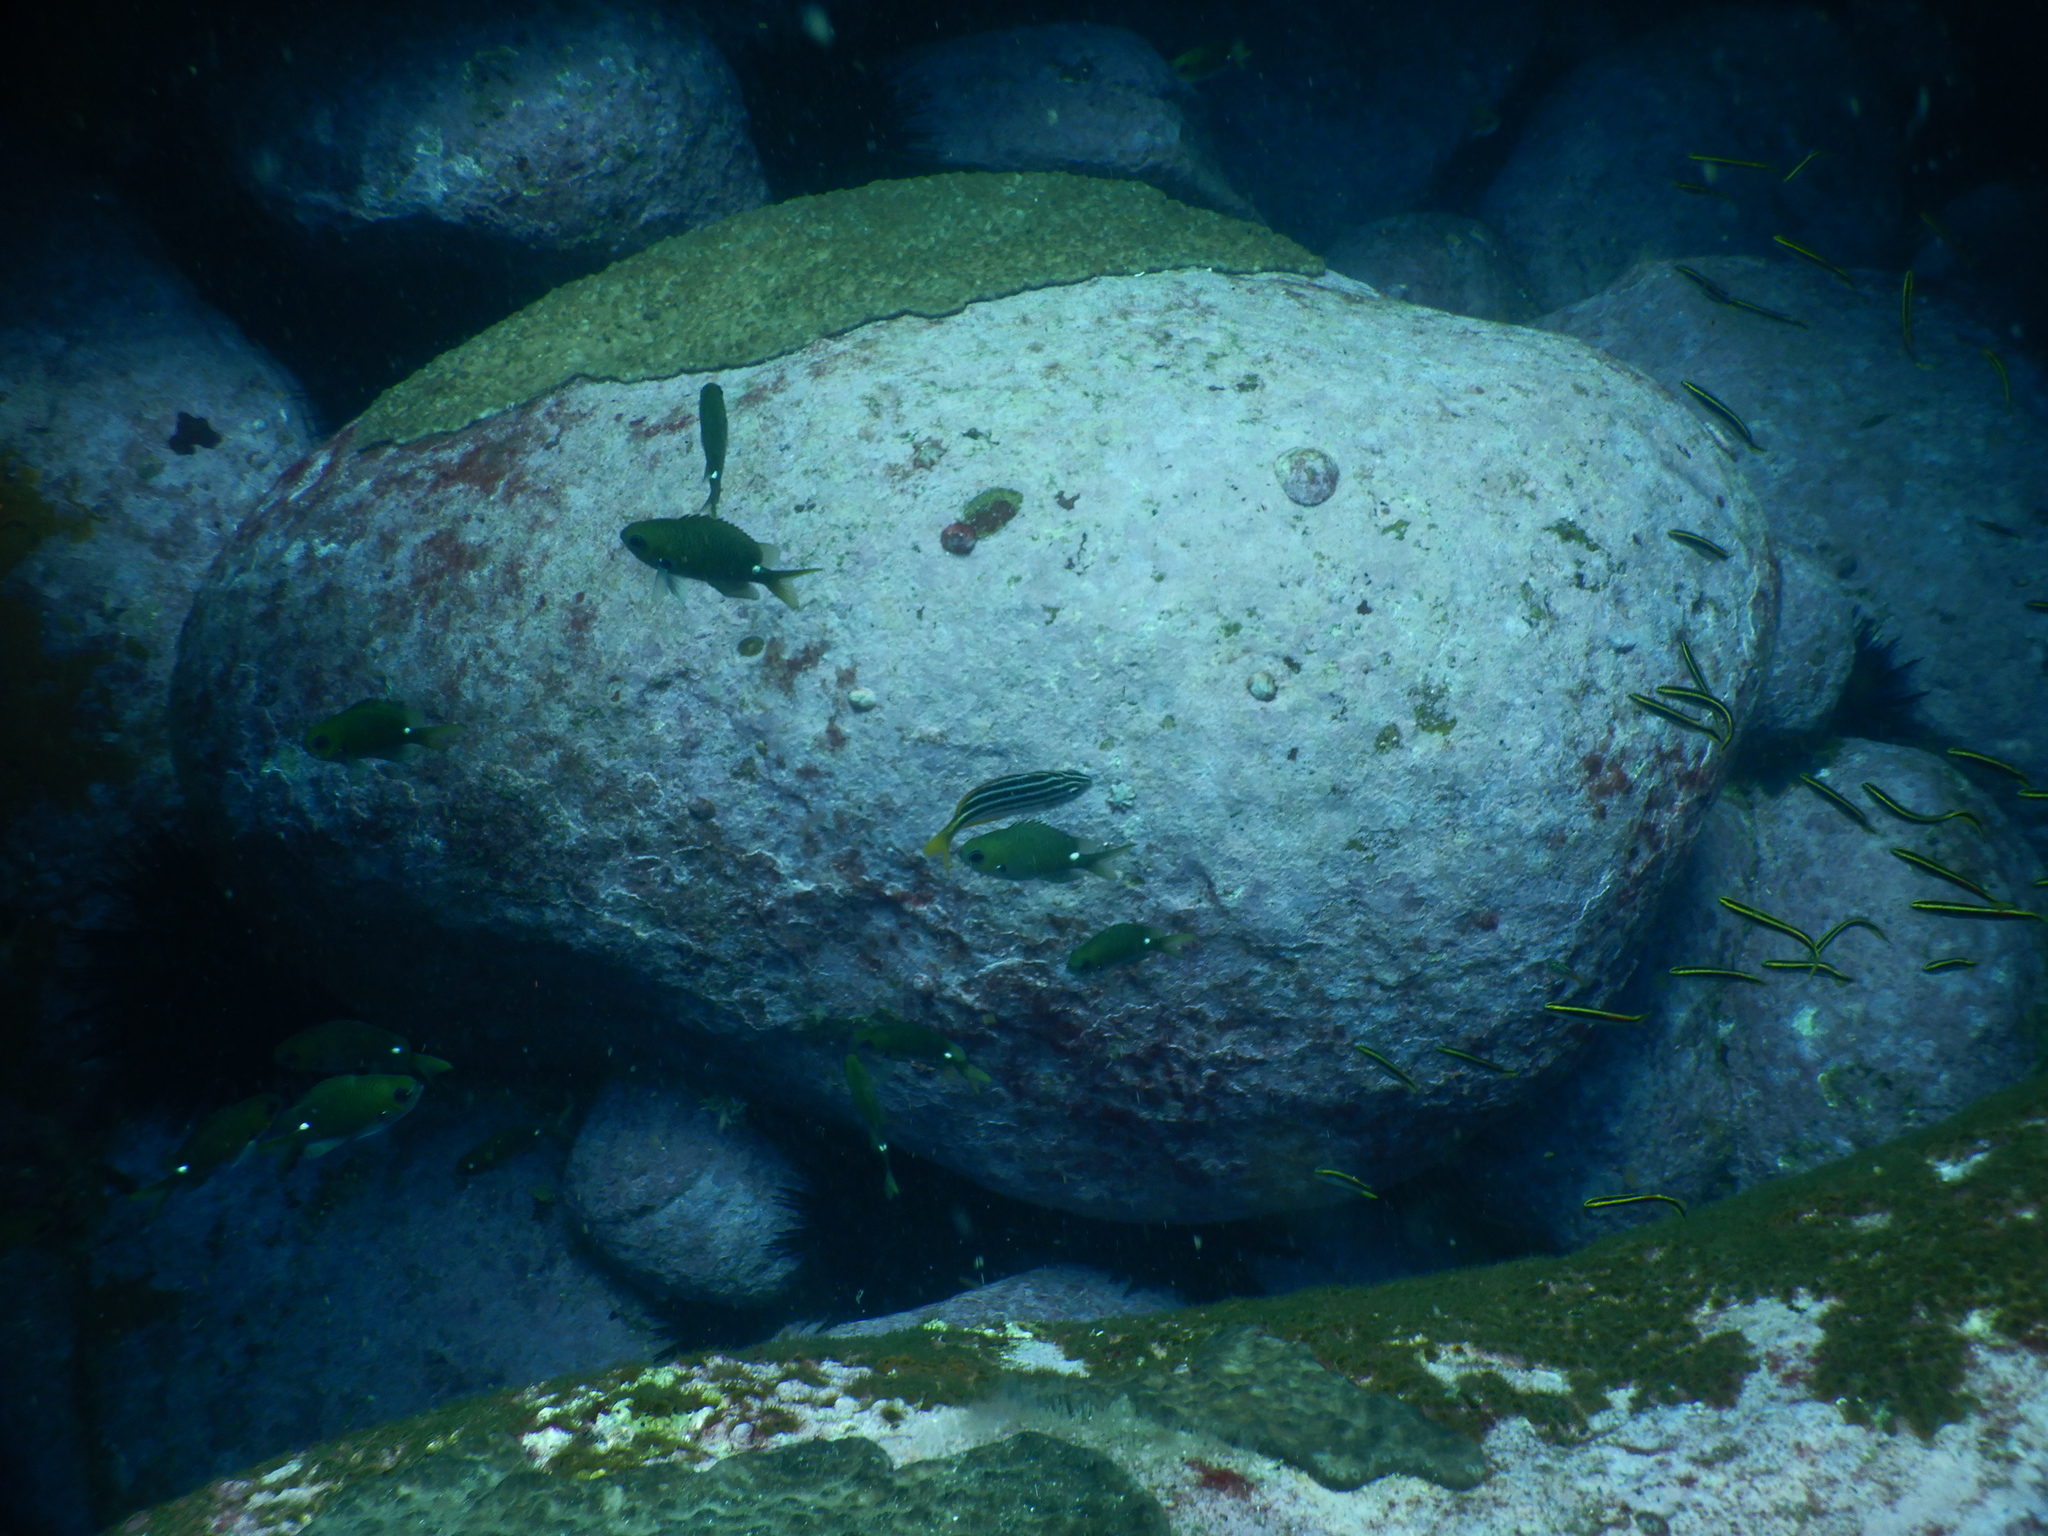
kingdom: Animalia
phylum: Chordata
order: Perciformes
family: Pomacentridae
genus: Chromis
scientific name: Chromis hypsilepis
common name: Brown puller
